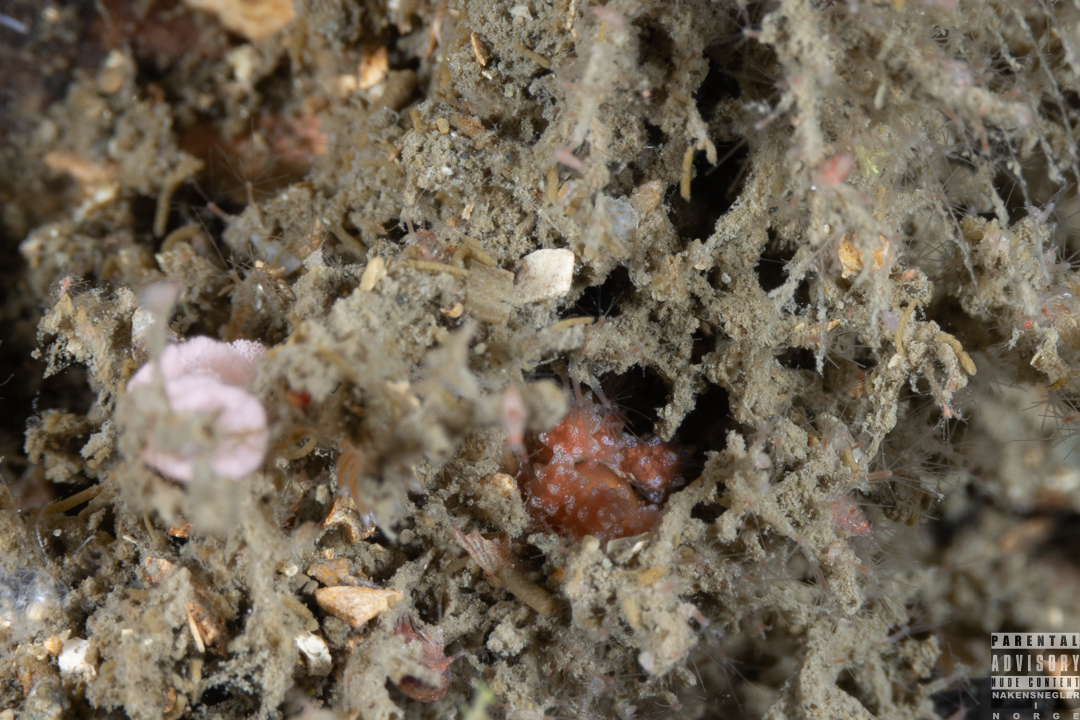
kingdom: Animalia
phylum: Mollusca
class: Gastropoda
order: Nudibranchia
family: Dotidae
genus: Doto
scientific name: Doto fragilis
